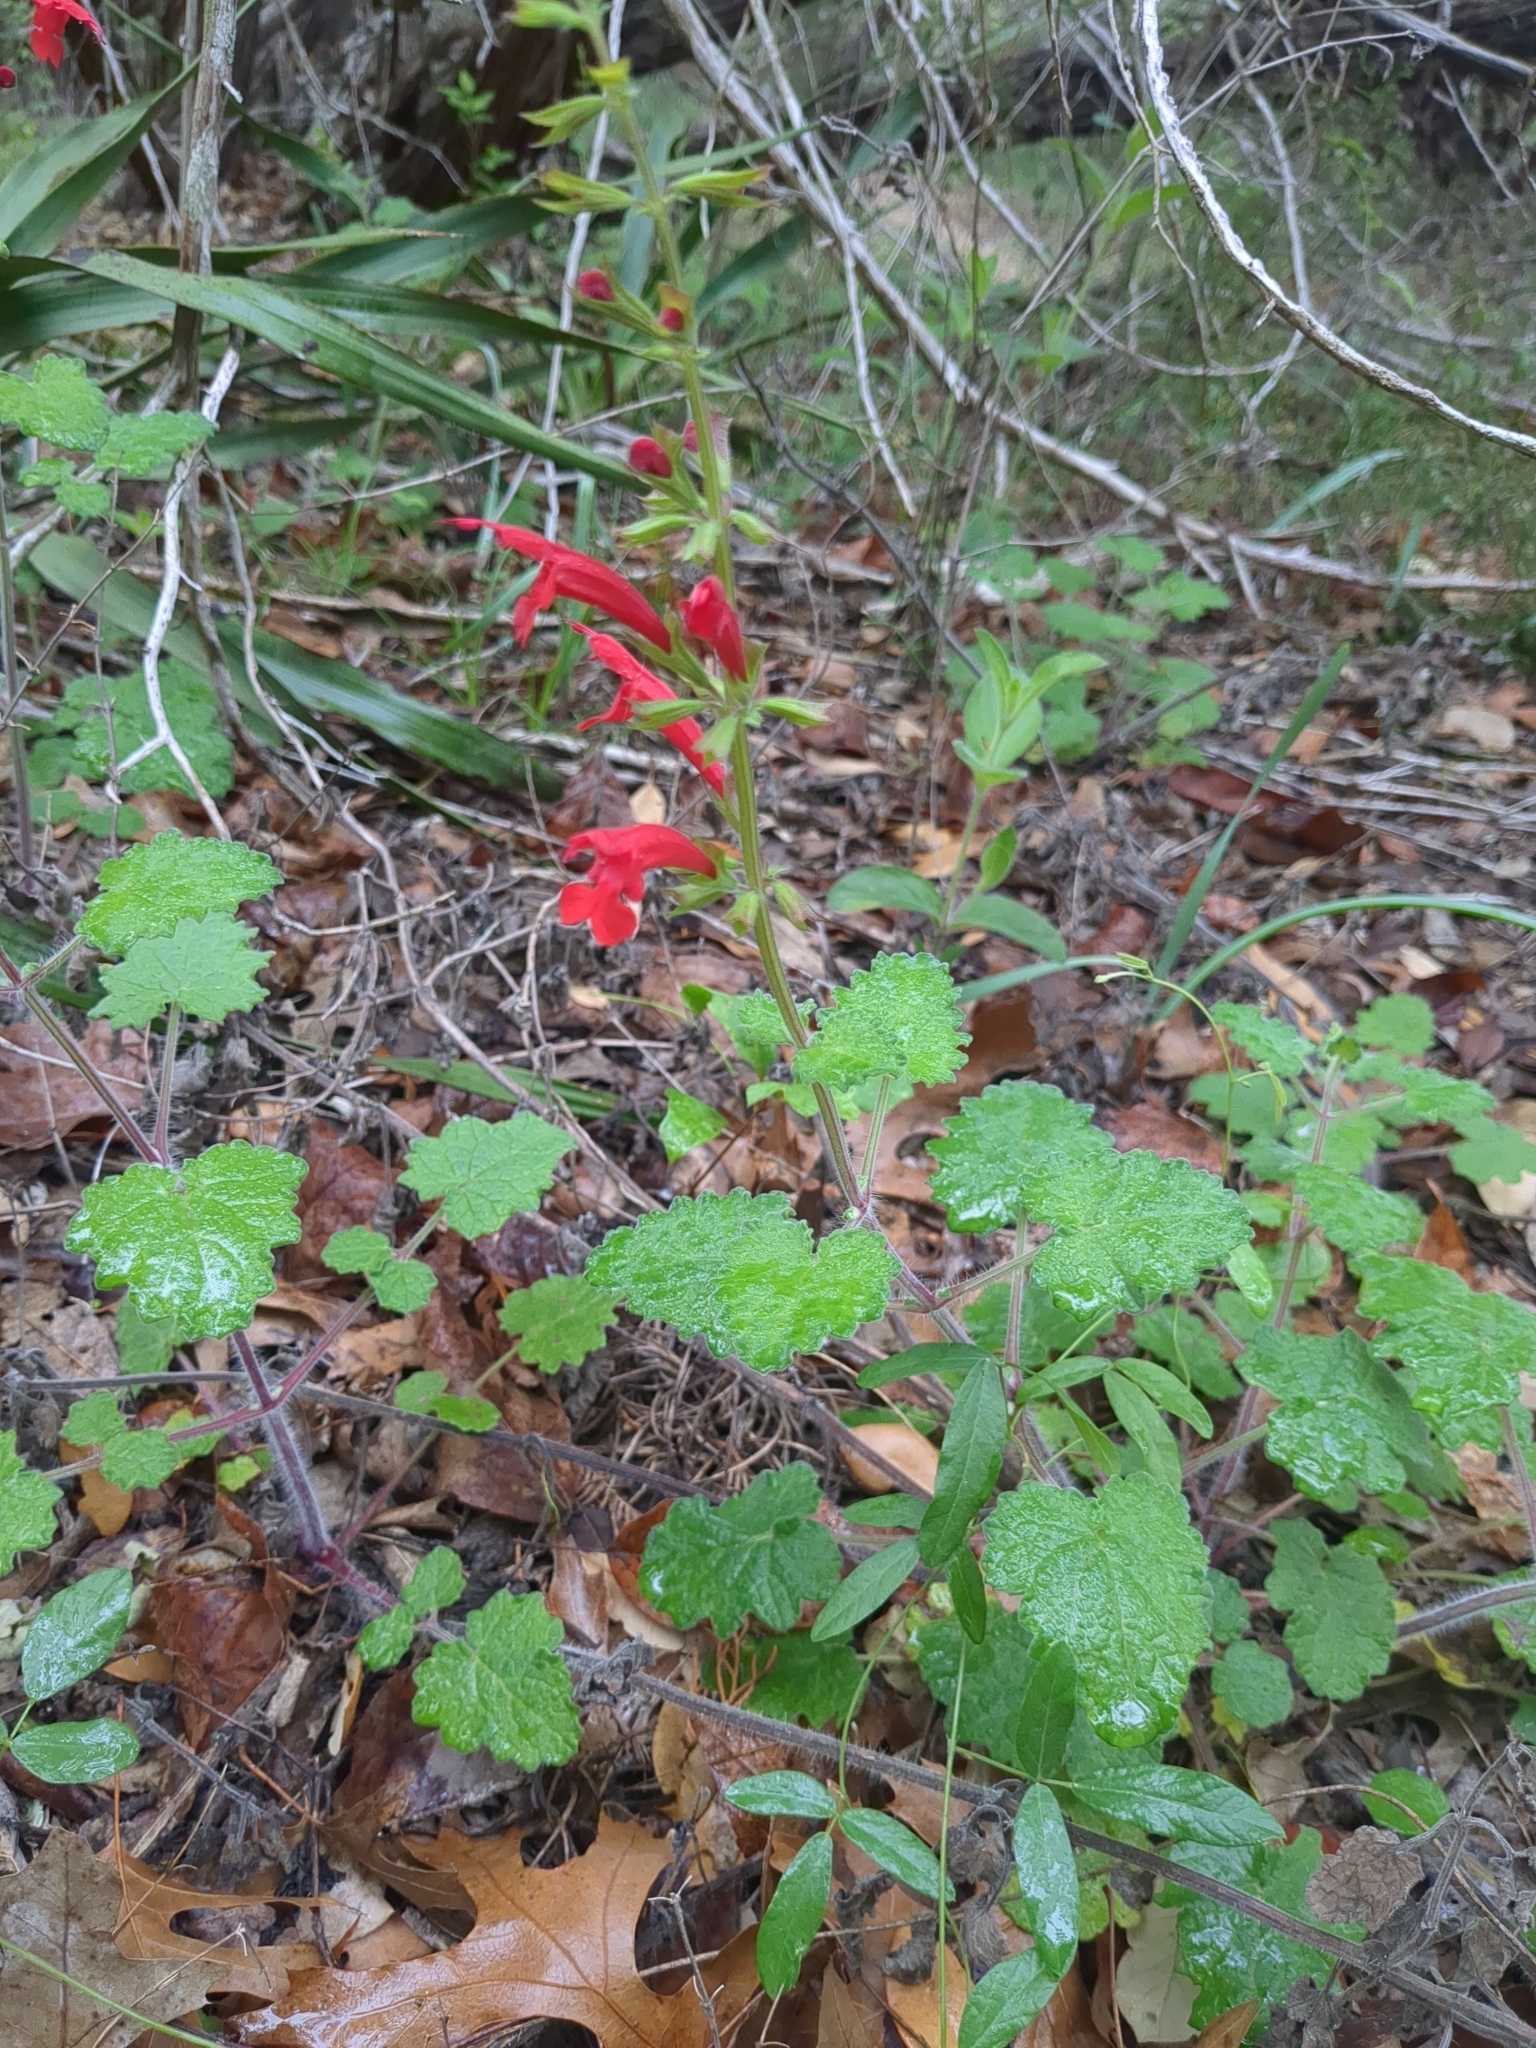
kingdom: Plantae
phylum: Tracheophyta
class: Magnoliopsida
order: Lamiales
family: Lamiaceae
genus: Salvia
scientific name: Salvia roemeriana
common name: Cedar sage
